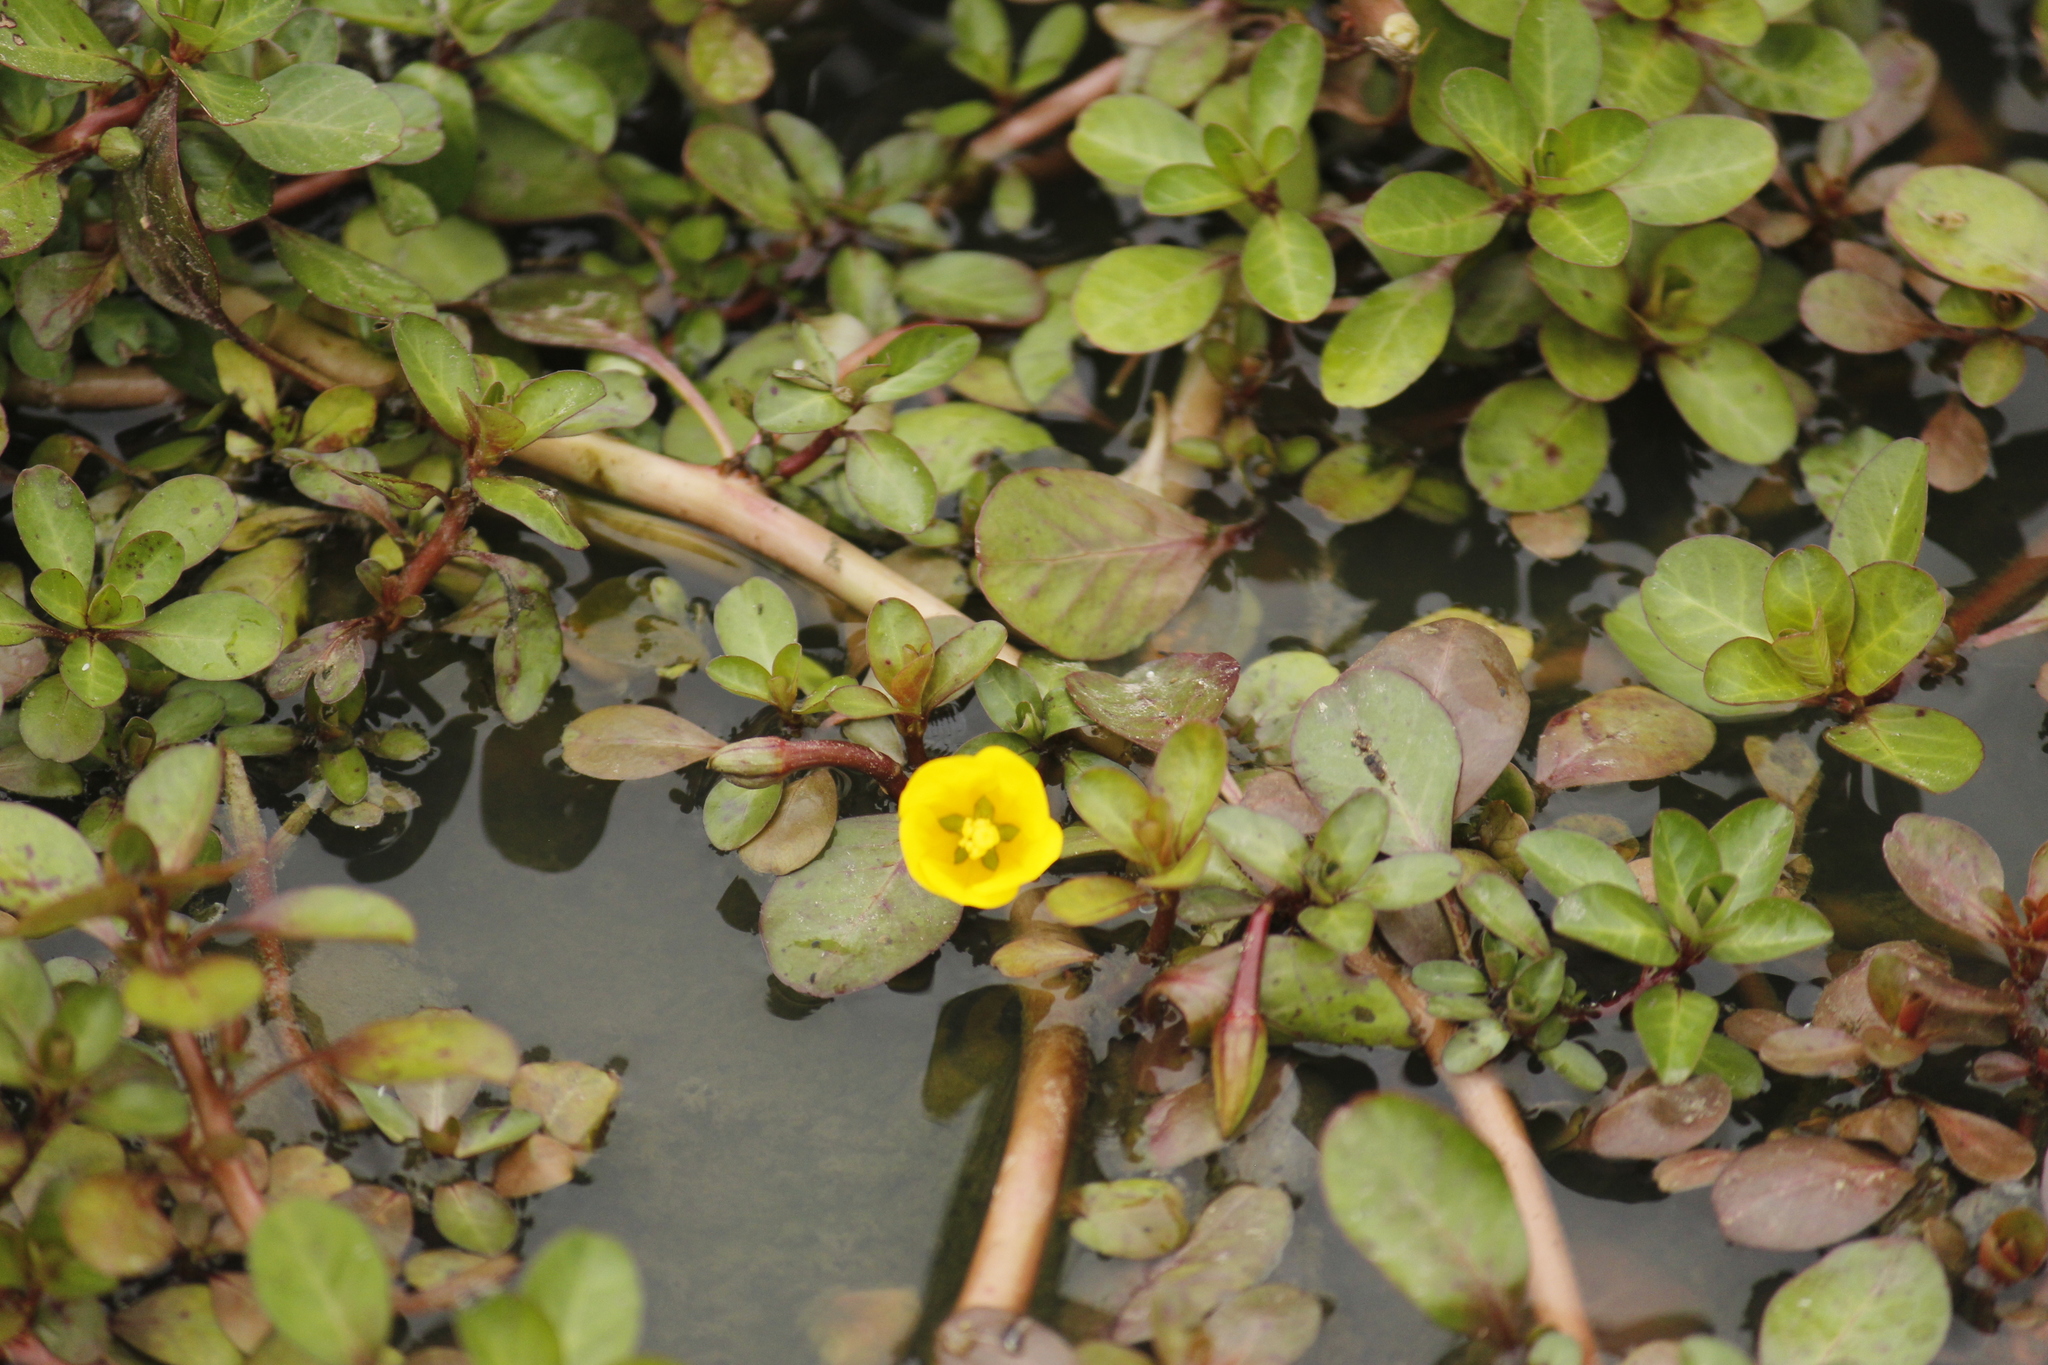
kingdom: Plantae
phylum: Tracheophyta
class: Magnoliopsida
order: Myrtales
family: Onagraceae
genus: Ludwigia
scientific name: Ludwigia peploides
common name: Floating primrose-willow
